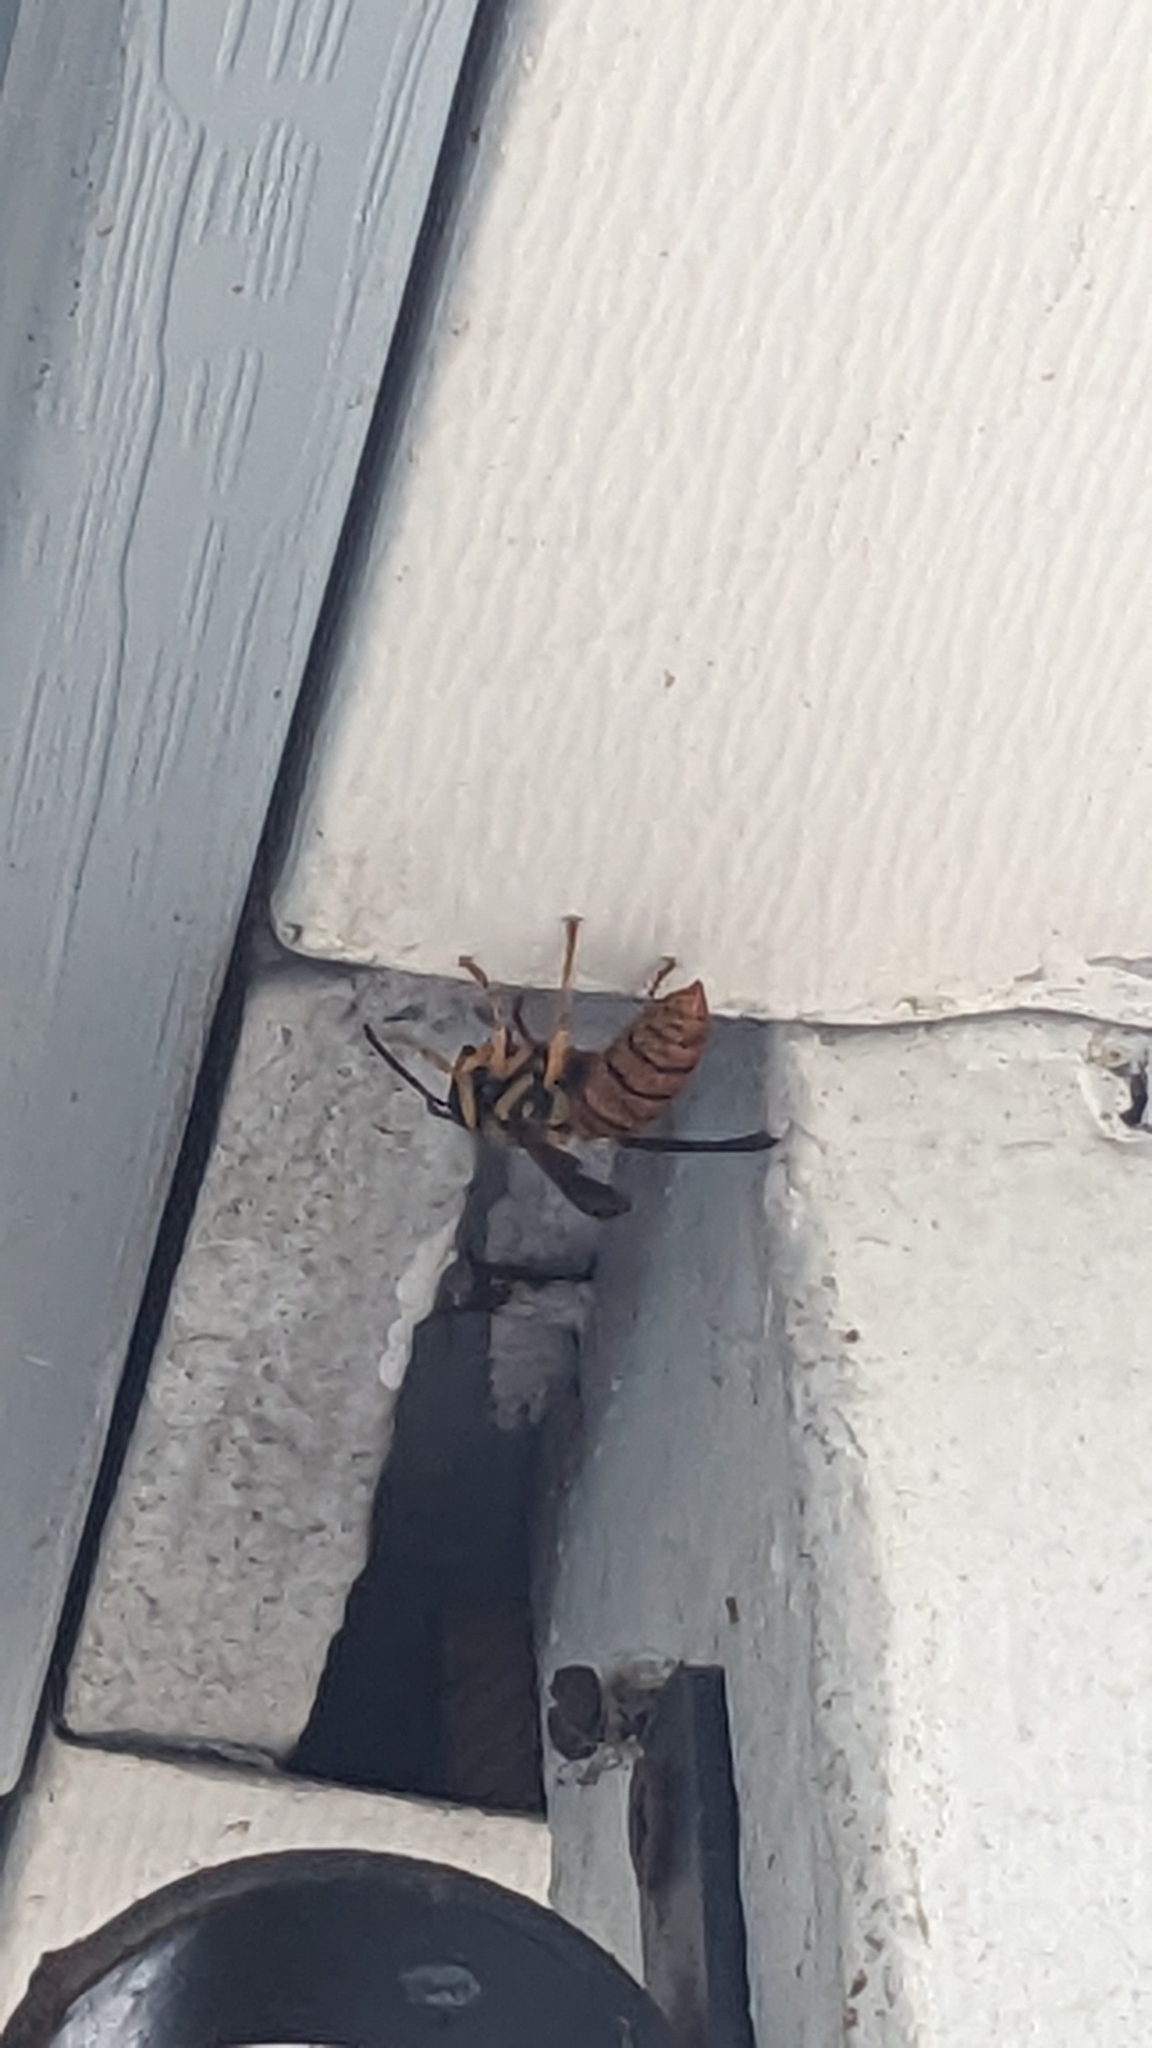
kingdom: Animalia
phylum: Arthropoda
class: Insecta
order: Hymenoptera
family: Vespidae
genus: Vespula
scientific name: Vespula squamosa
